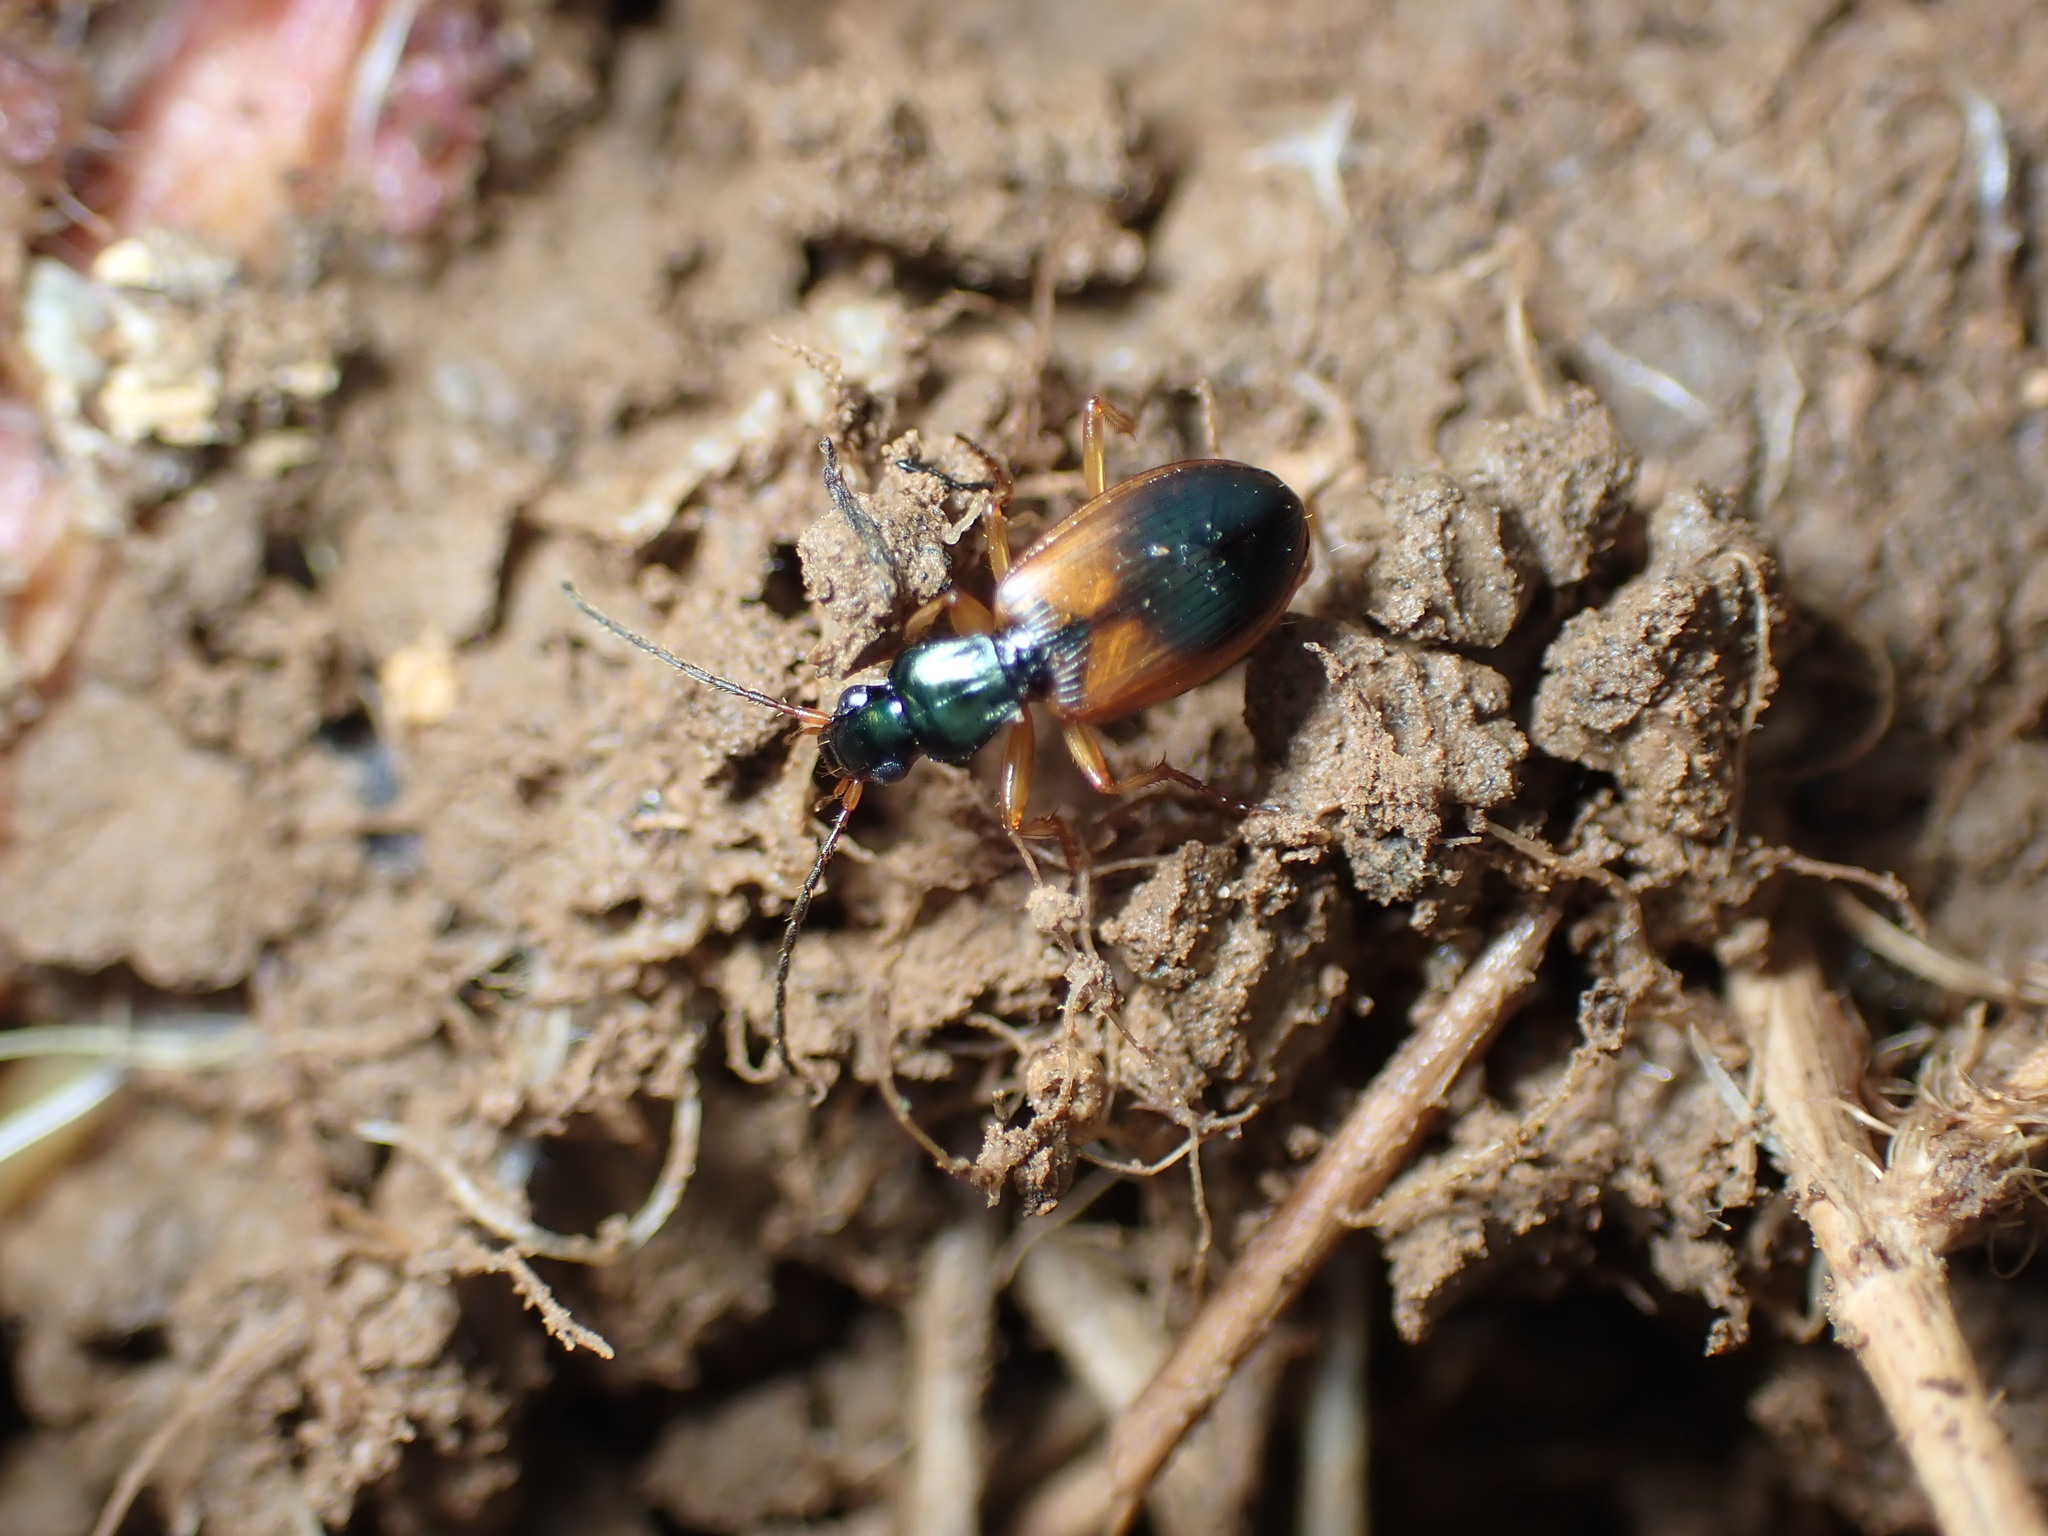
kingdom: Animalia
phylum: Arthropoda
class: Insecta
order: Coleoptera
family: Carabidae
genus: Anchomenus
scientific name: Anchomenus dorsalis
